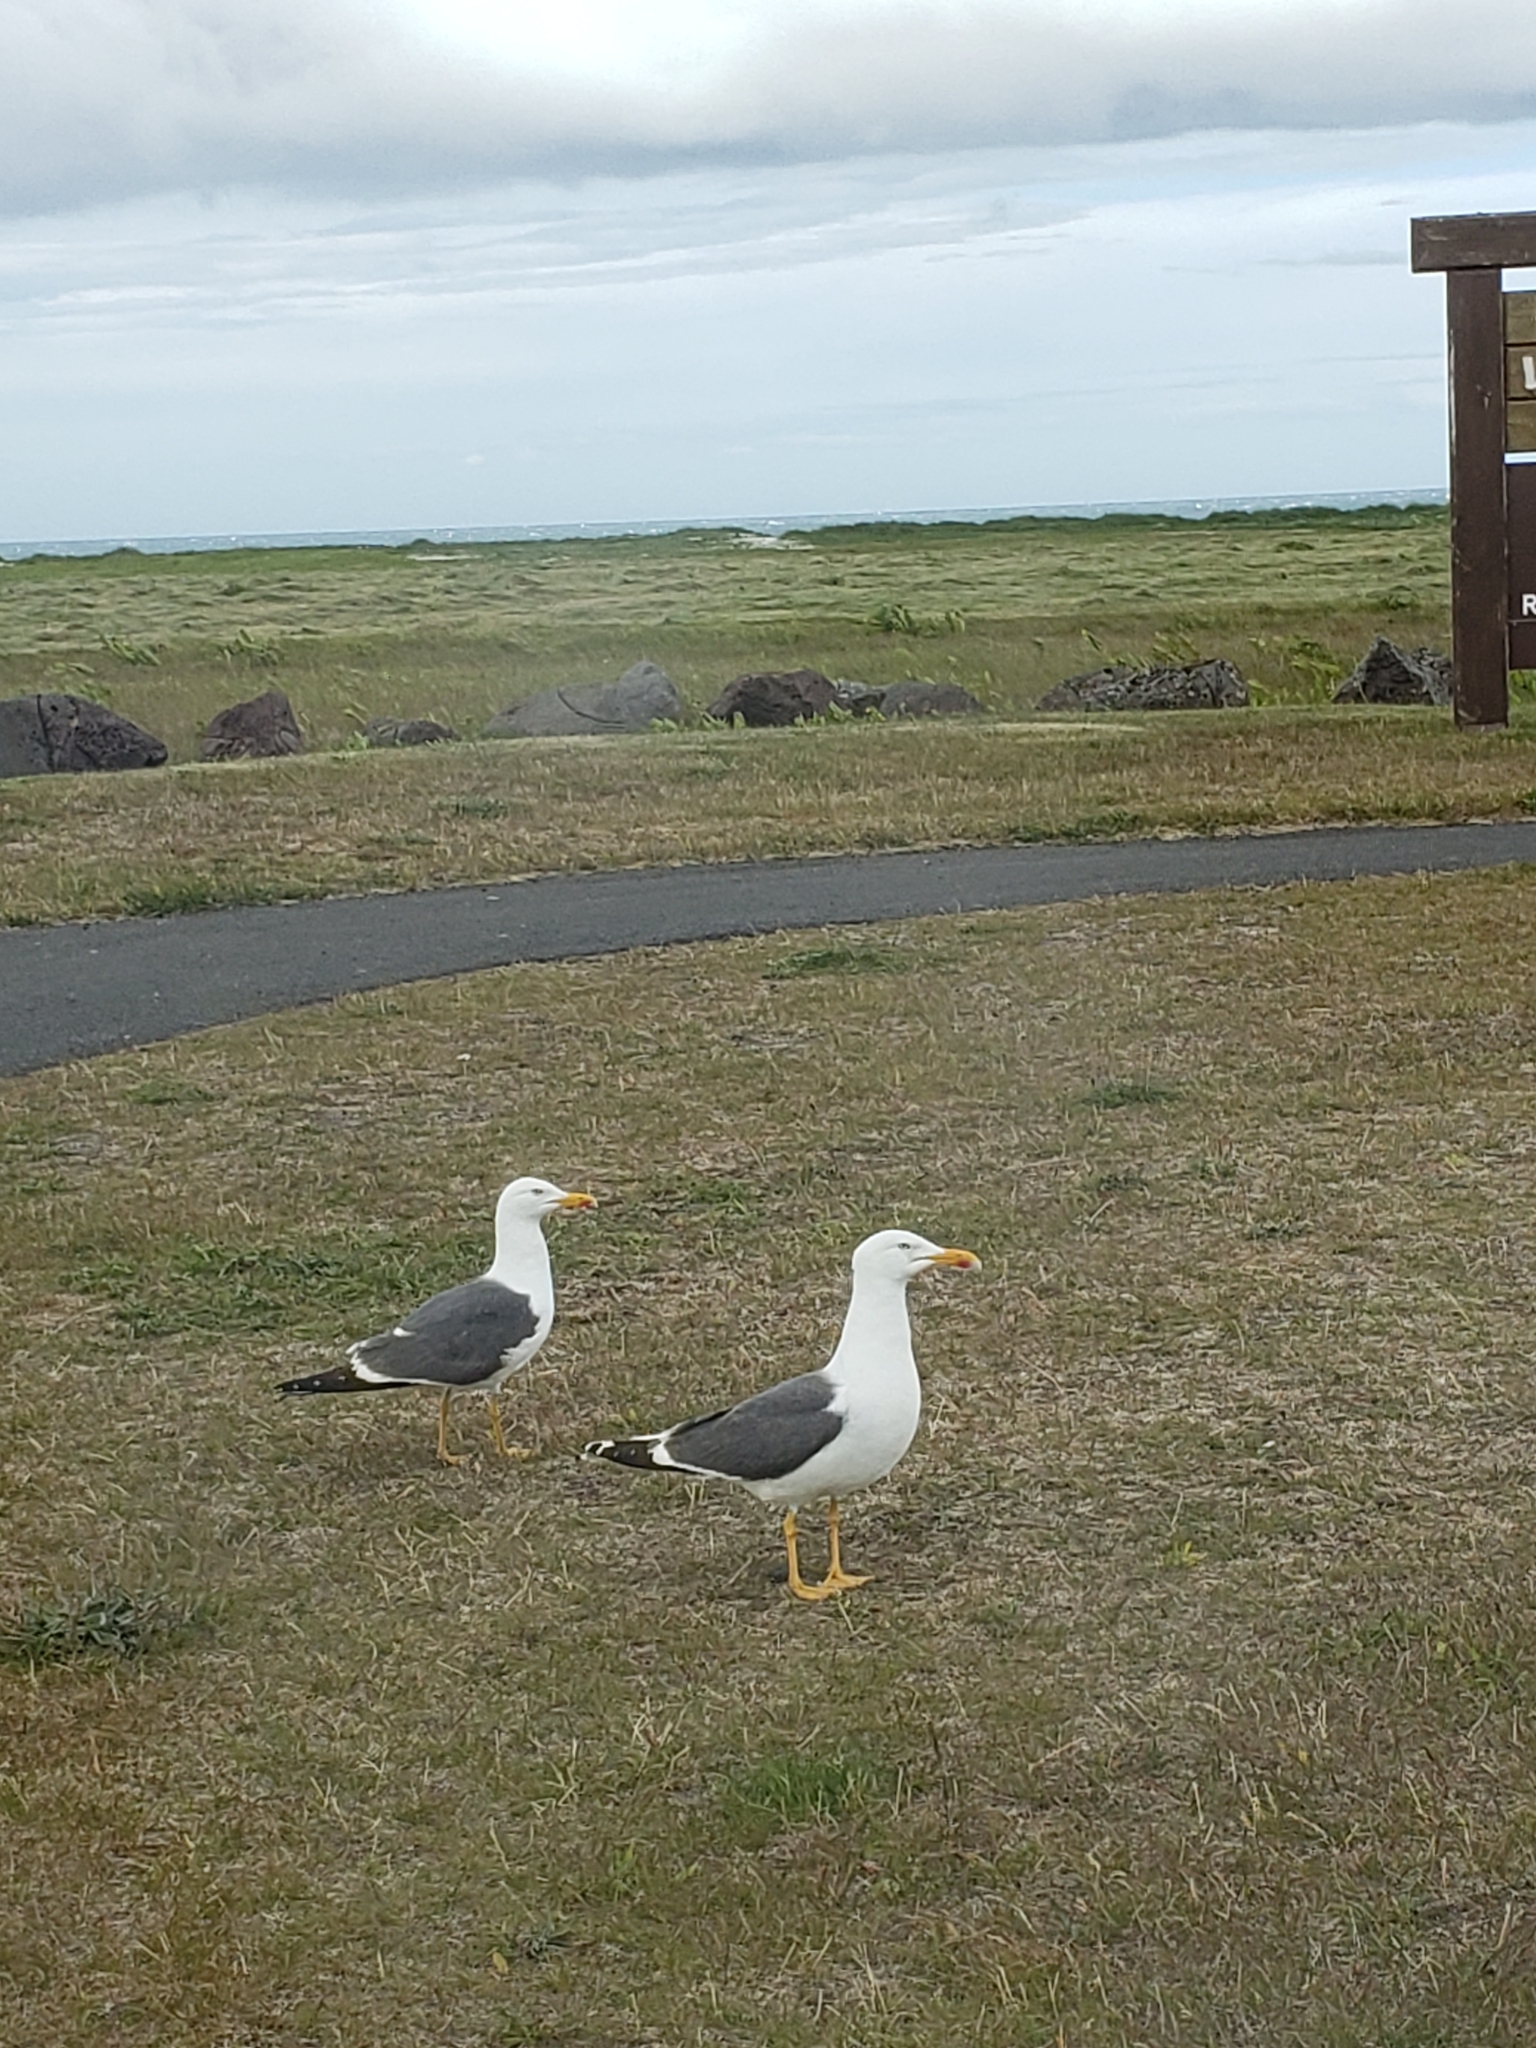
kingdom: Animalia
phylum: Chordata
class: Aves
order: Charadriiformes
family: Laridae
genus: Larus
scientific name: Larus fuscus
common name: Lesser black-backed gull
